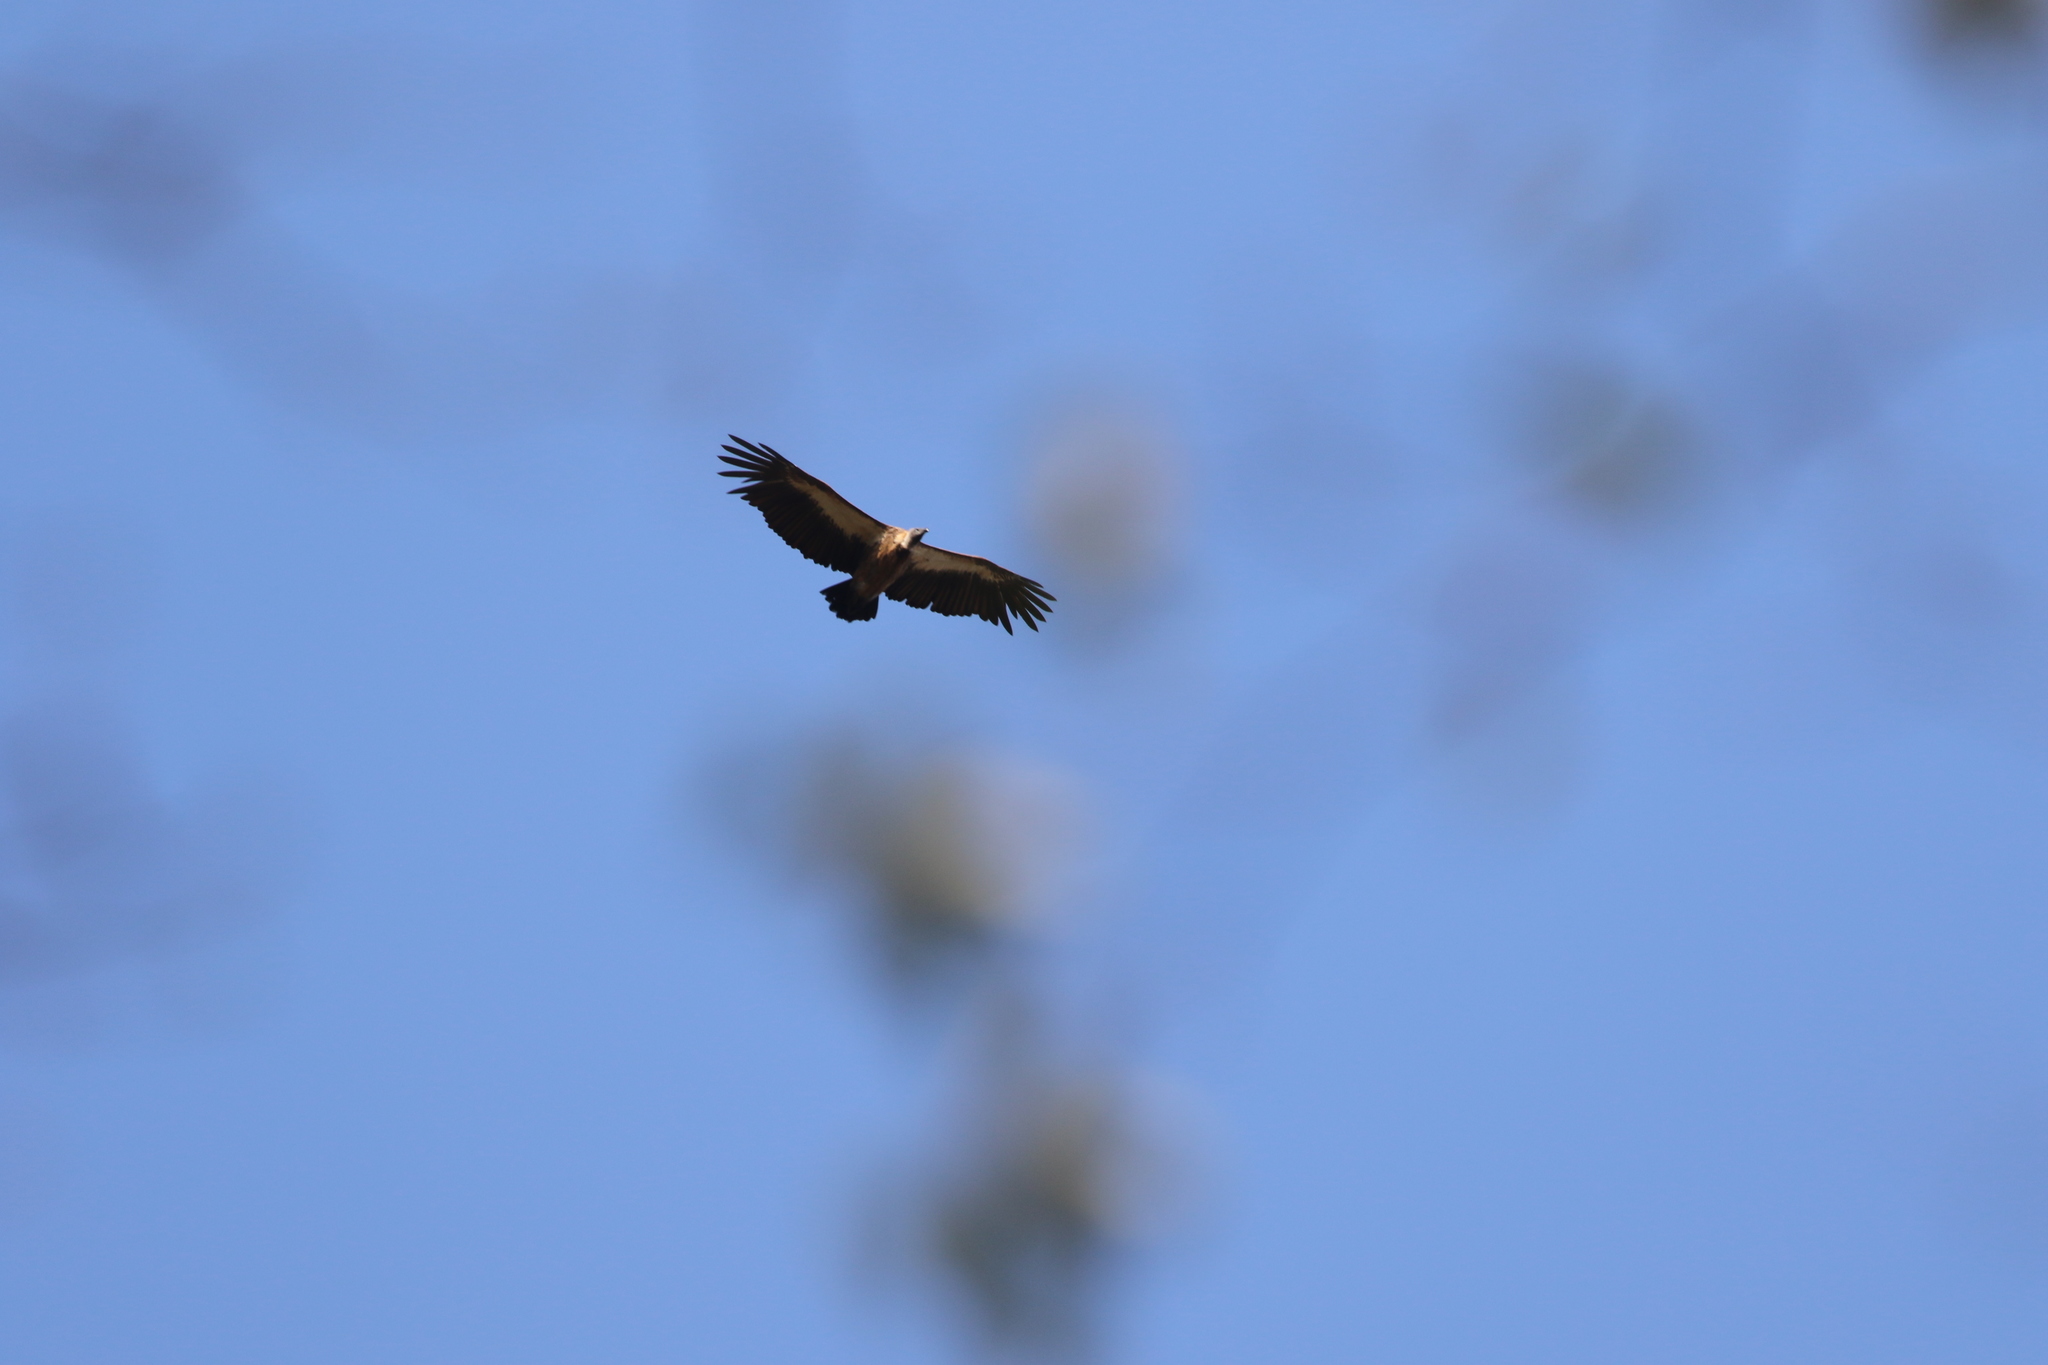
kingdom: Animalia
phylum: Chordata
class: Aves
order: Accipitriformes
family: Accipitridae
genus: Gyps
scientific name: Gyps africanus
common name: White-backed vulture
